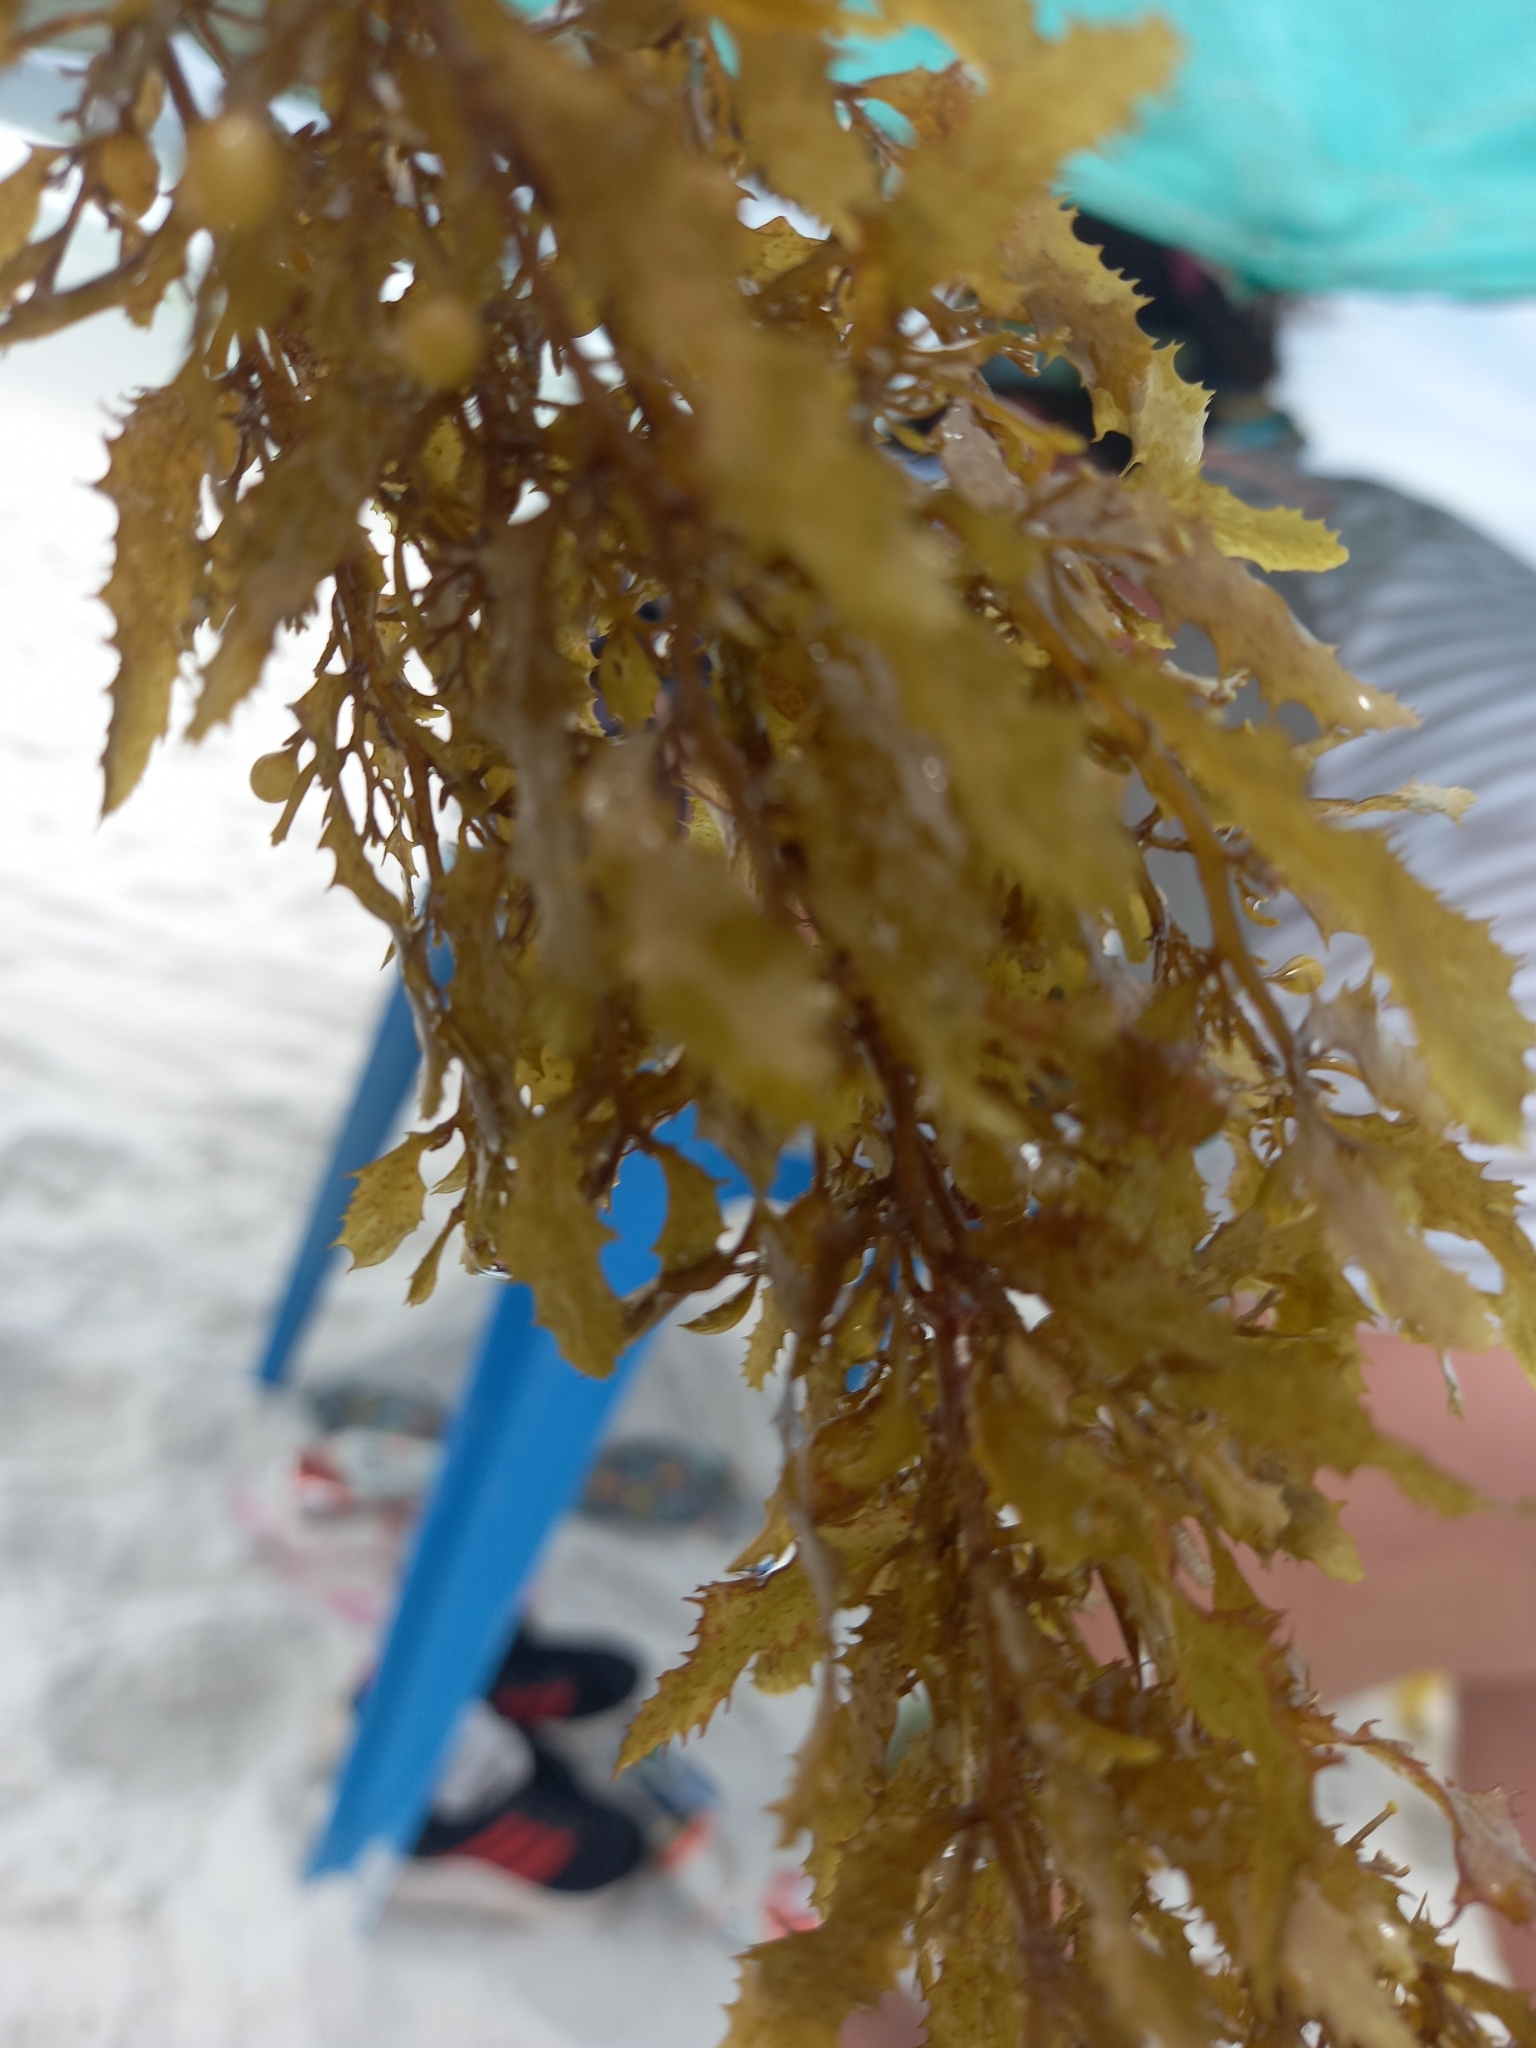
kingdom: Chromista
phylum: Ochrophyta
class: Phaeophyceae
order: Fucales
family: Sargassaceae
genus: Sargassum
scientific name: Sargassum fluitans
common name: Sargassum seaweed
